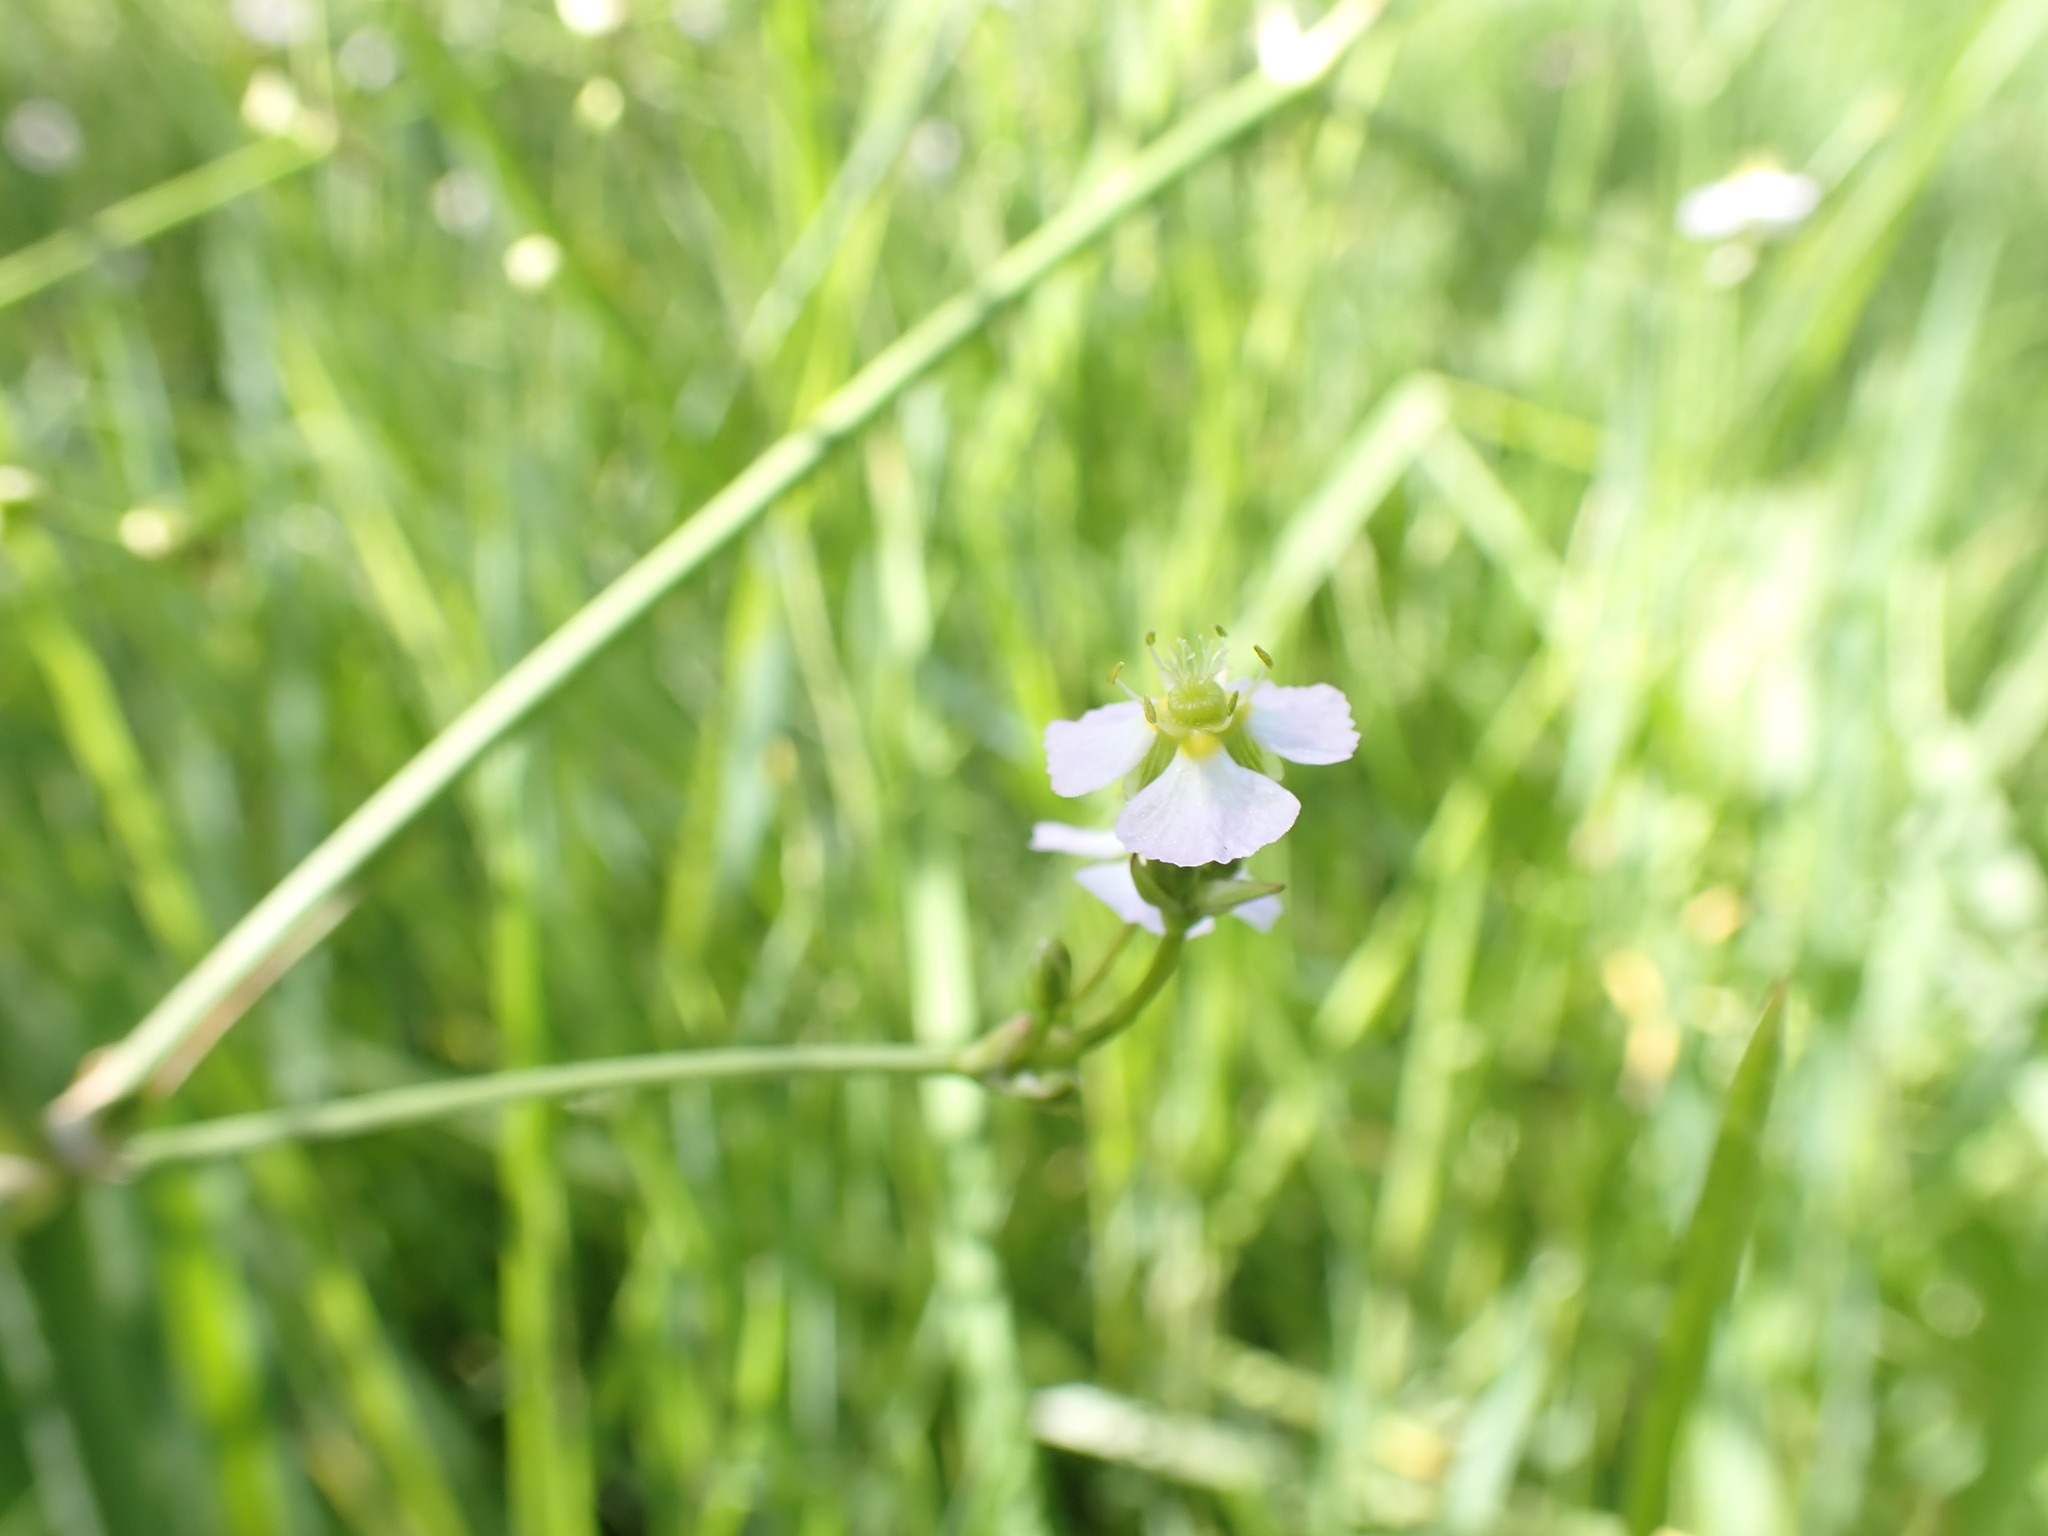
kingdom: Plantae
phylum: Tracheophyta
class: Liliopsida
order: Alismatales
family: Alismataceae
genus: Alisma
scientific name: Alisma plantago-aquatica
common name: Water-plantain
